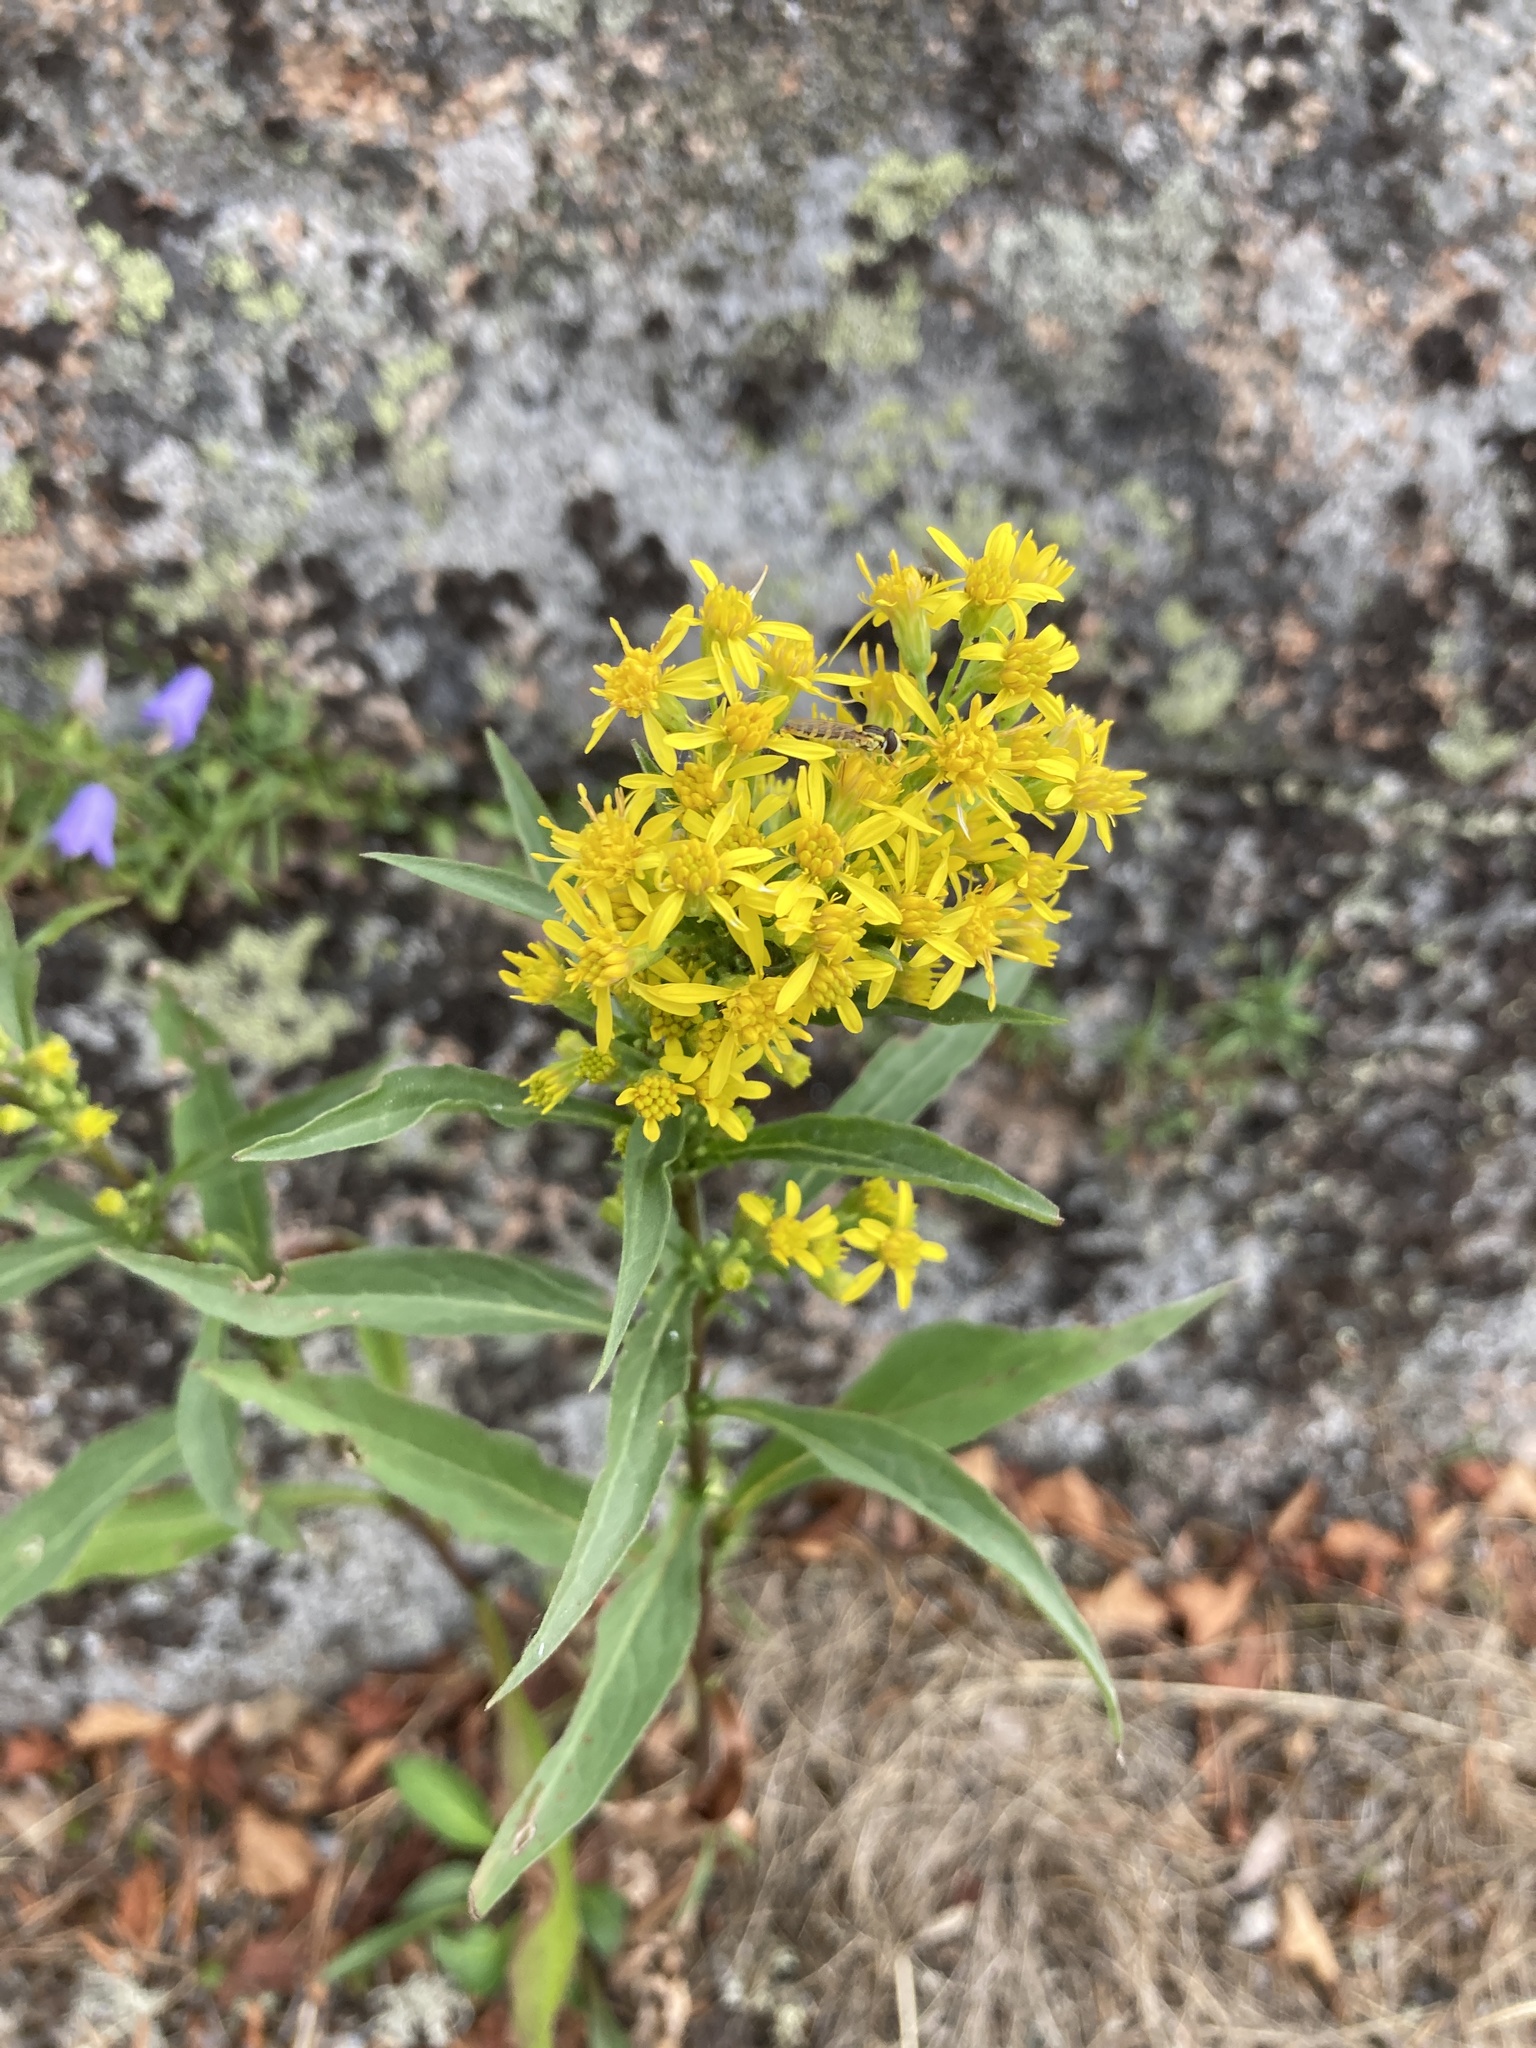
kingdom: Plantae
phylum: Tracheophyta
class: Magnoliopsida
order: Asterales
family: Asteraceae
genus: Solidago
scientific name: Solidago virgaurea
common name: Goldenrod
